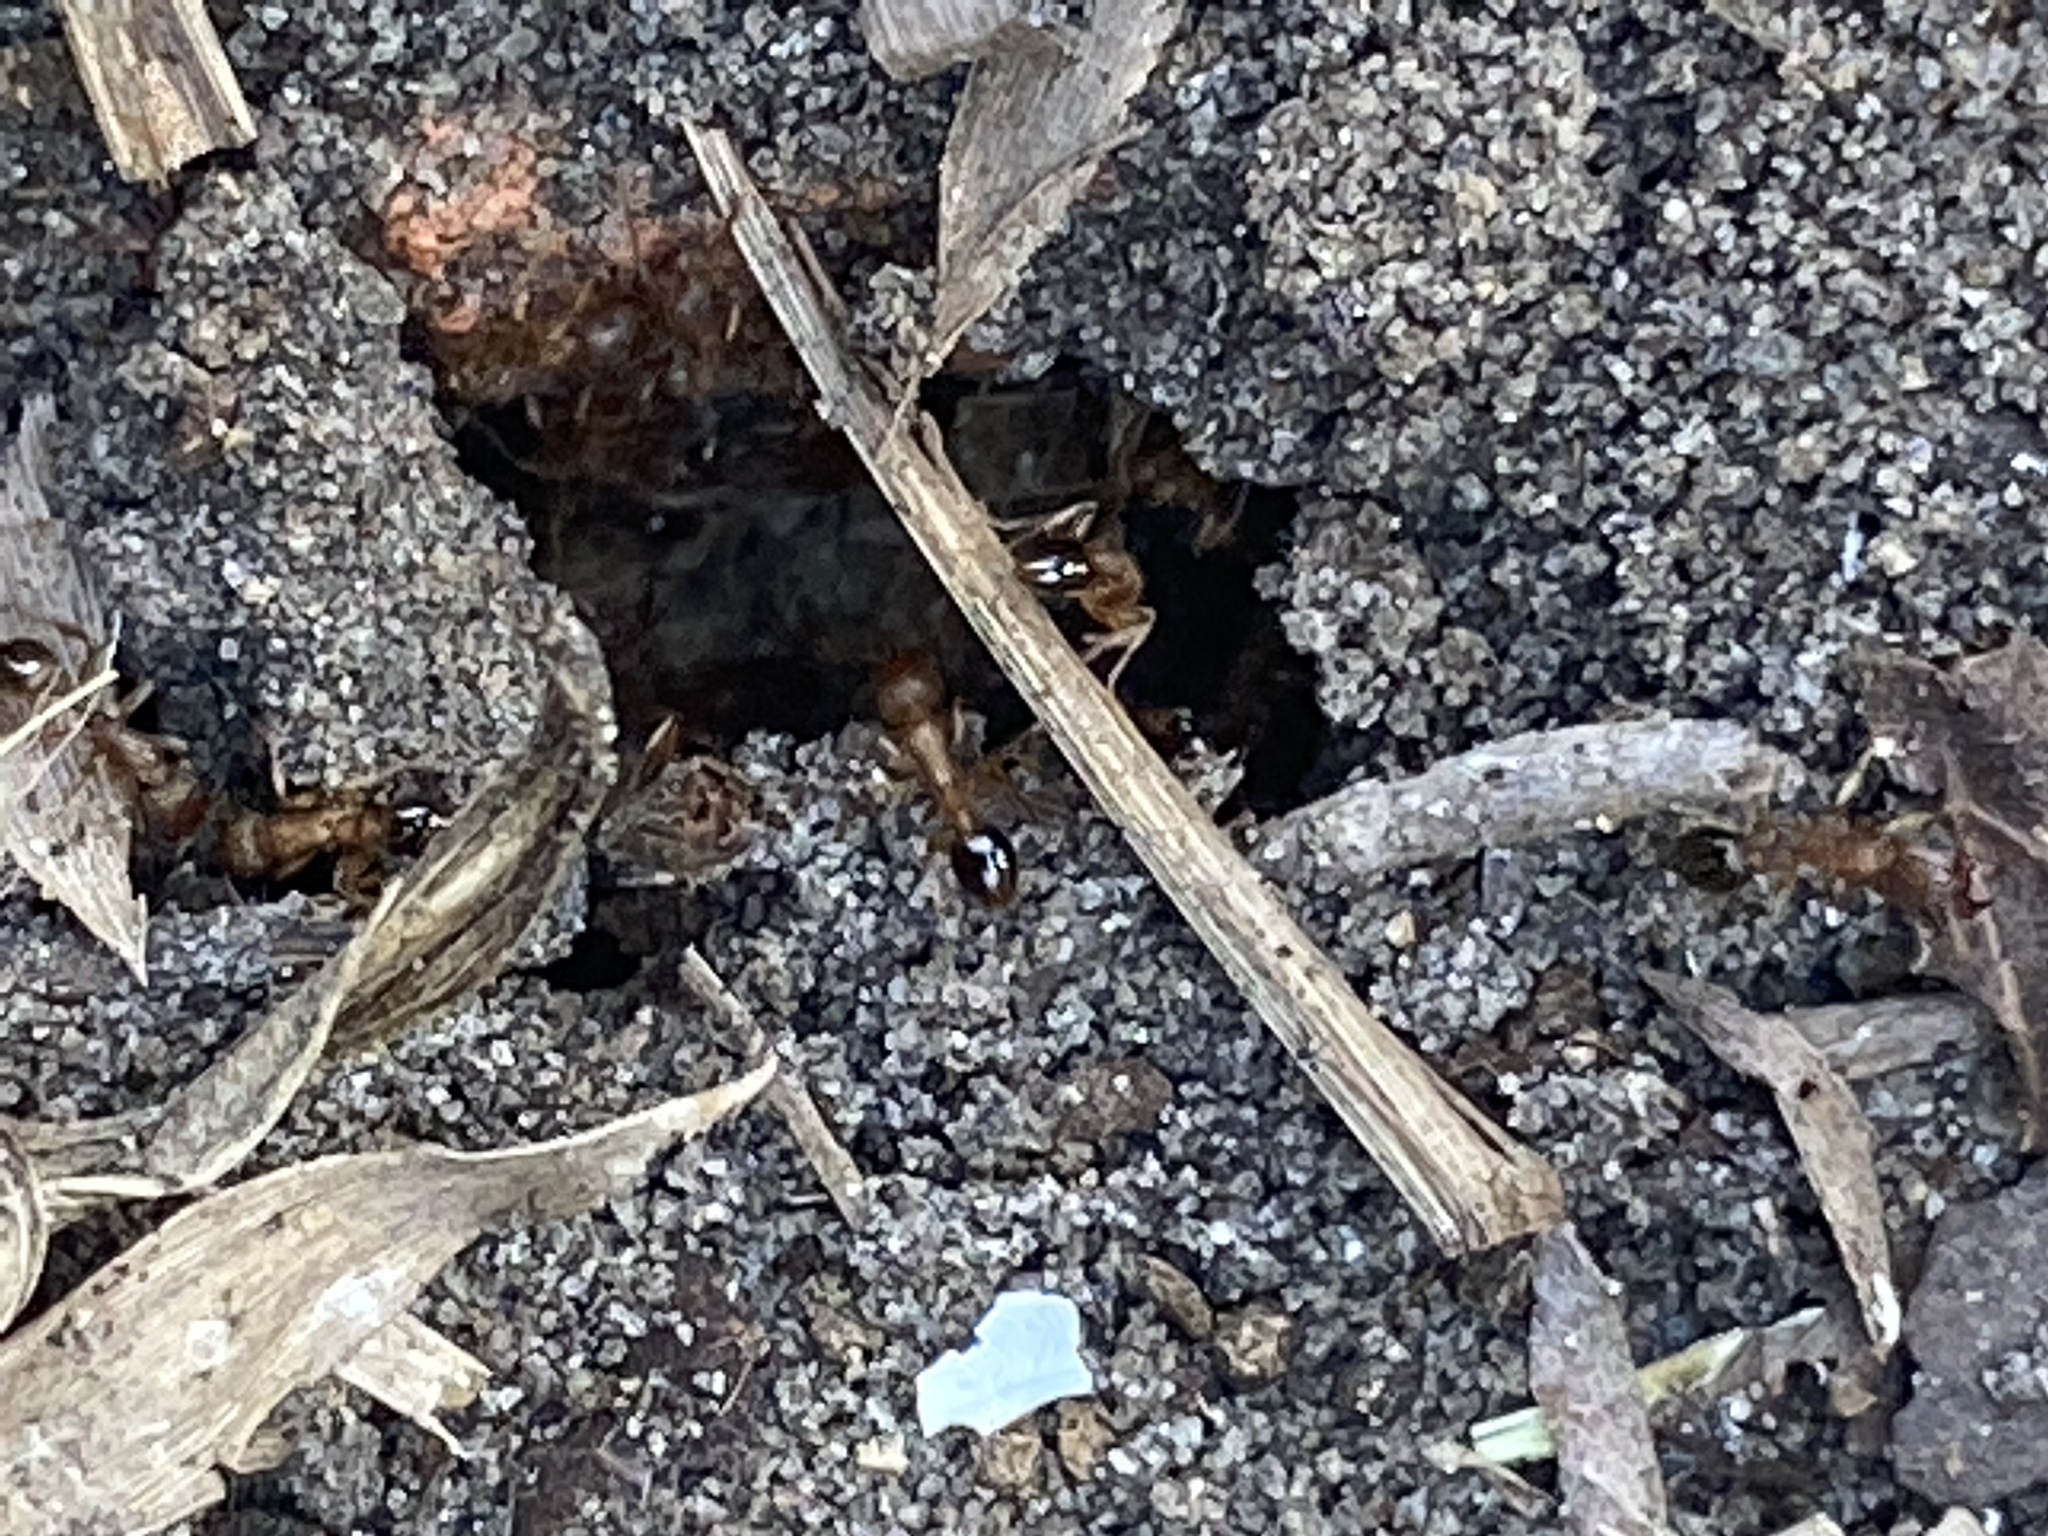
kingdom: Animalia
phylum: Arthropoda
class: Insecta
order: Hymenoptera
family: Formicidae
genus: Tetramorium
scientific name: Tetramorium bicarinatum
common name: Guinea ant
